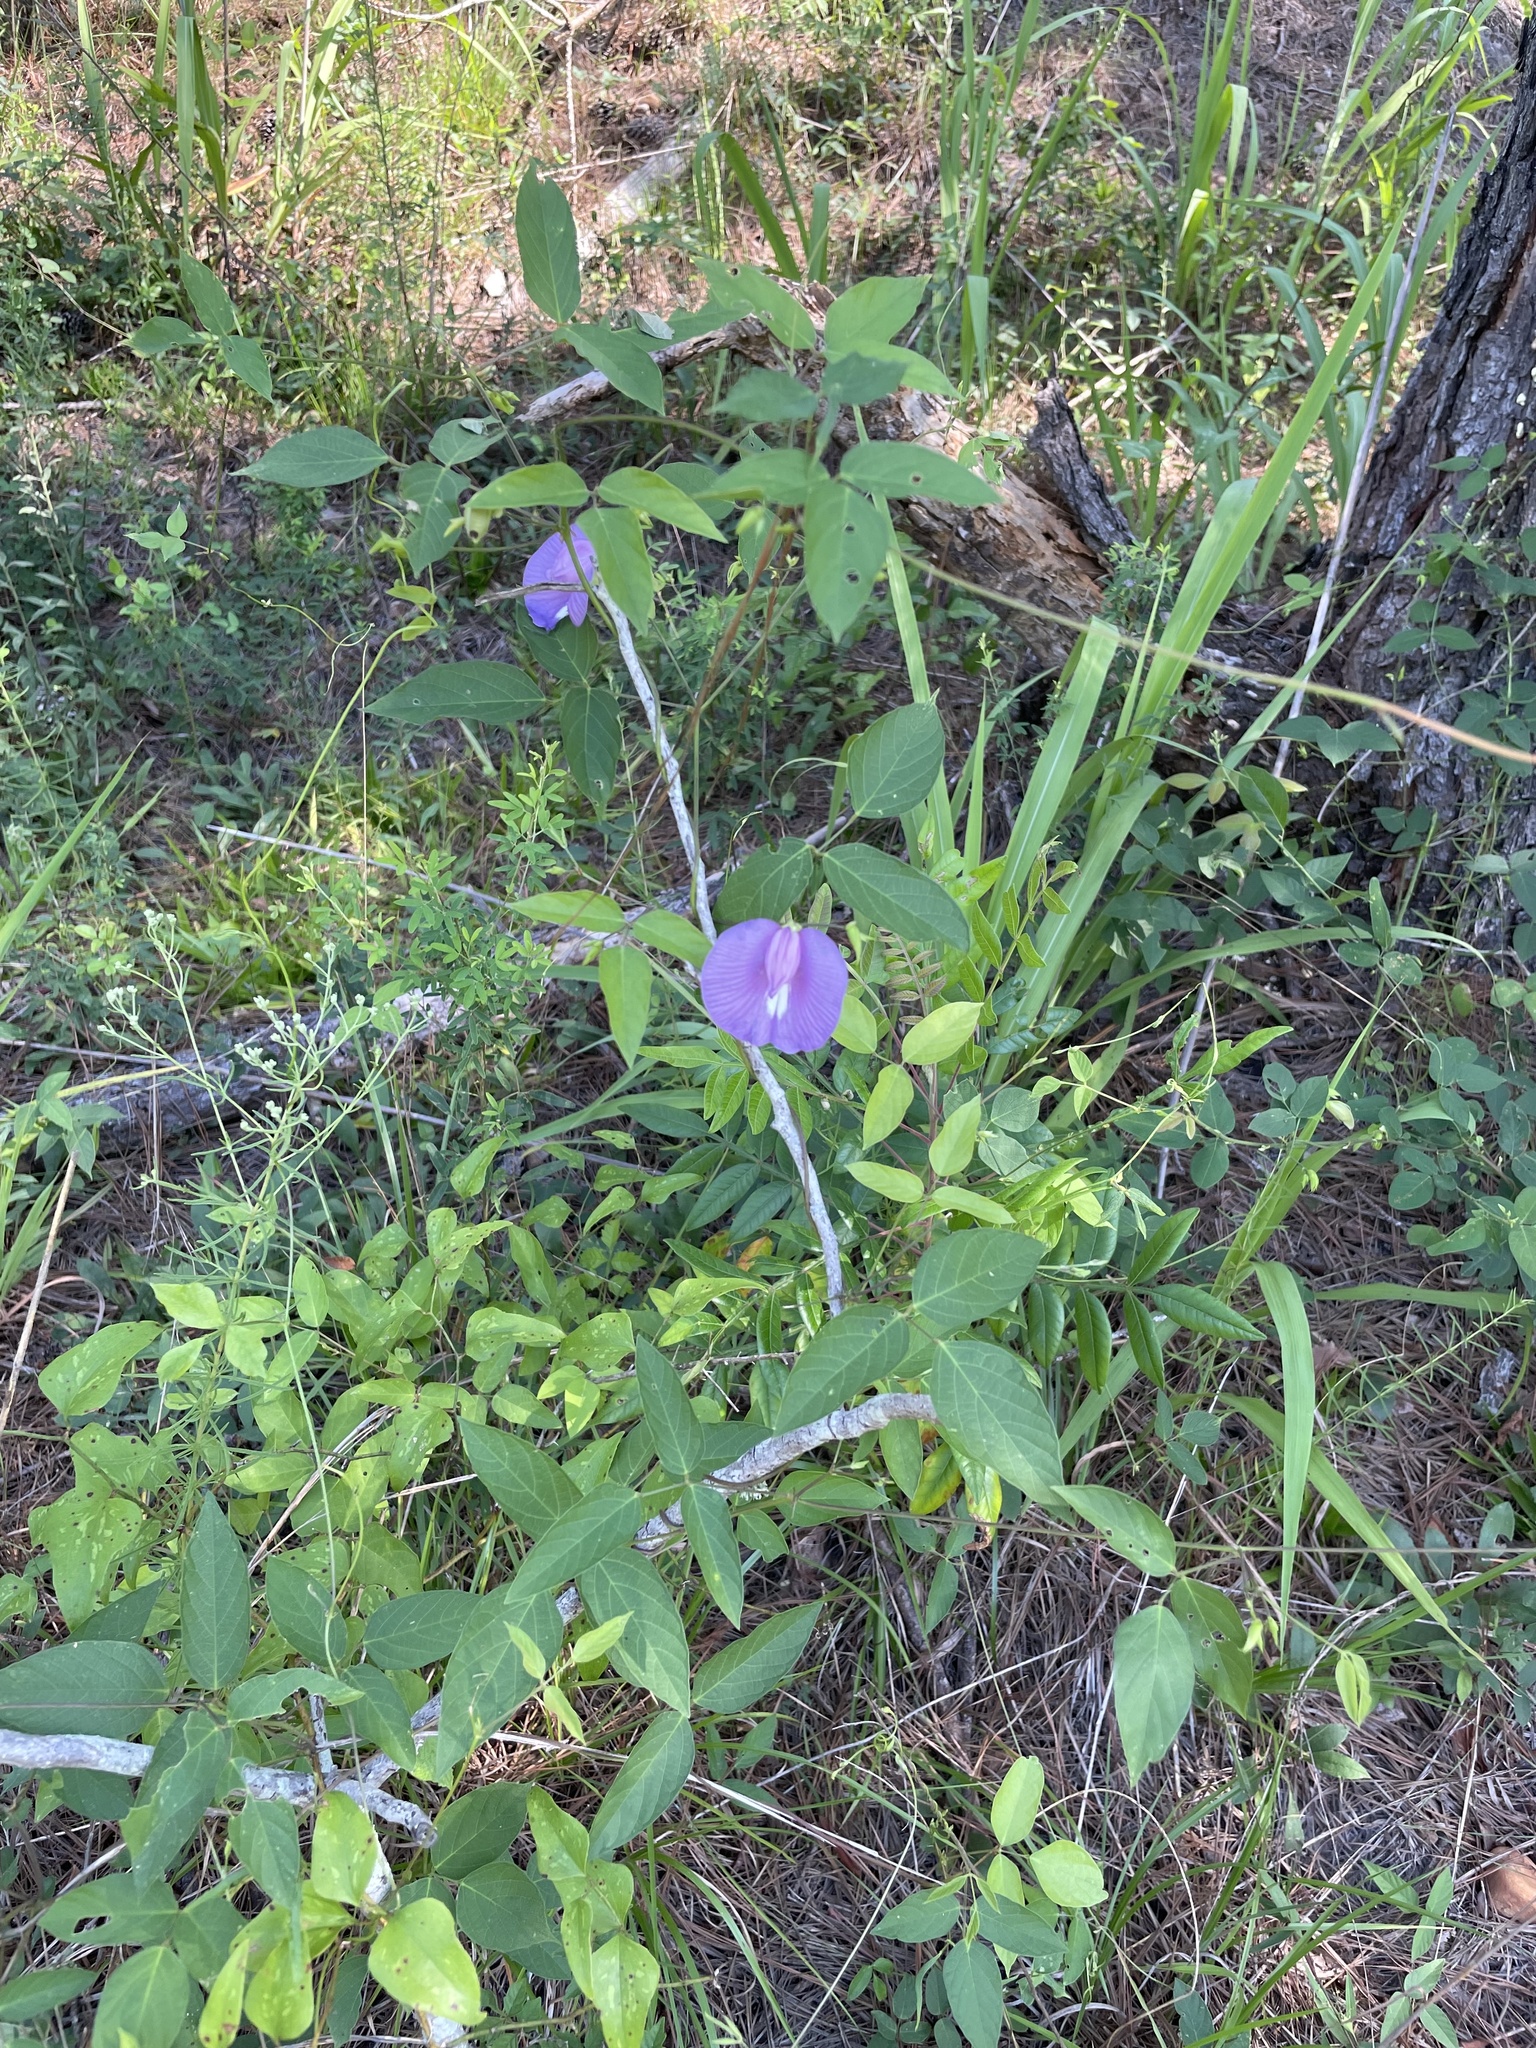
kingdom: Plantae
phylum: Tracheophyta
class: Magnoliopsida
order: Fabales
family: Fabaceae
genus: Centrosema
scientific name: Centrosema virginianum
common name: Butterfly-pea
